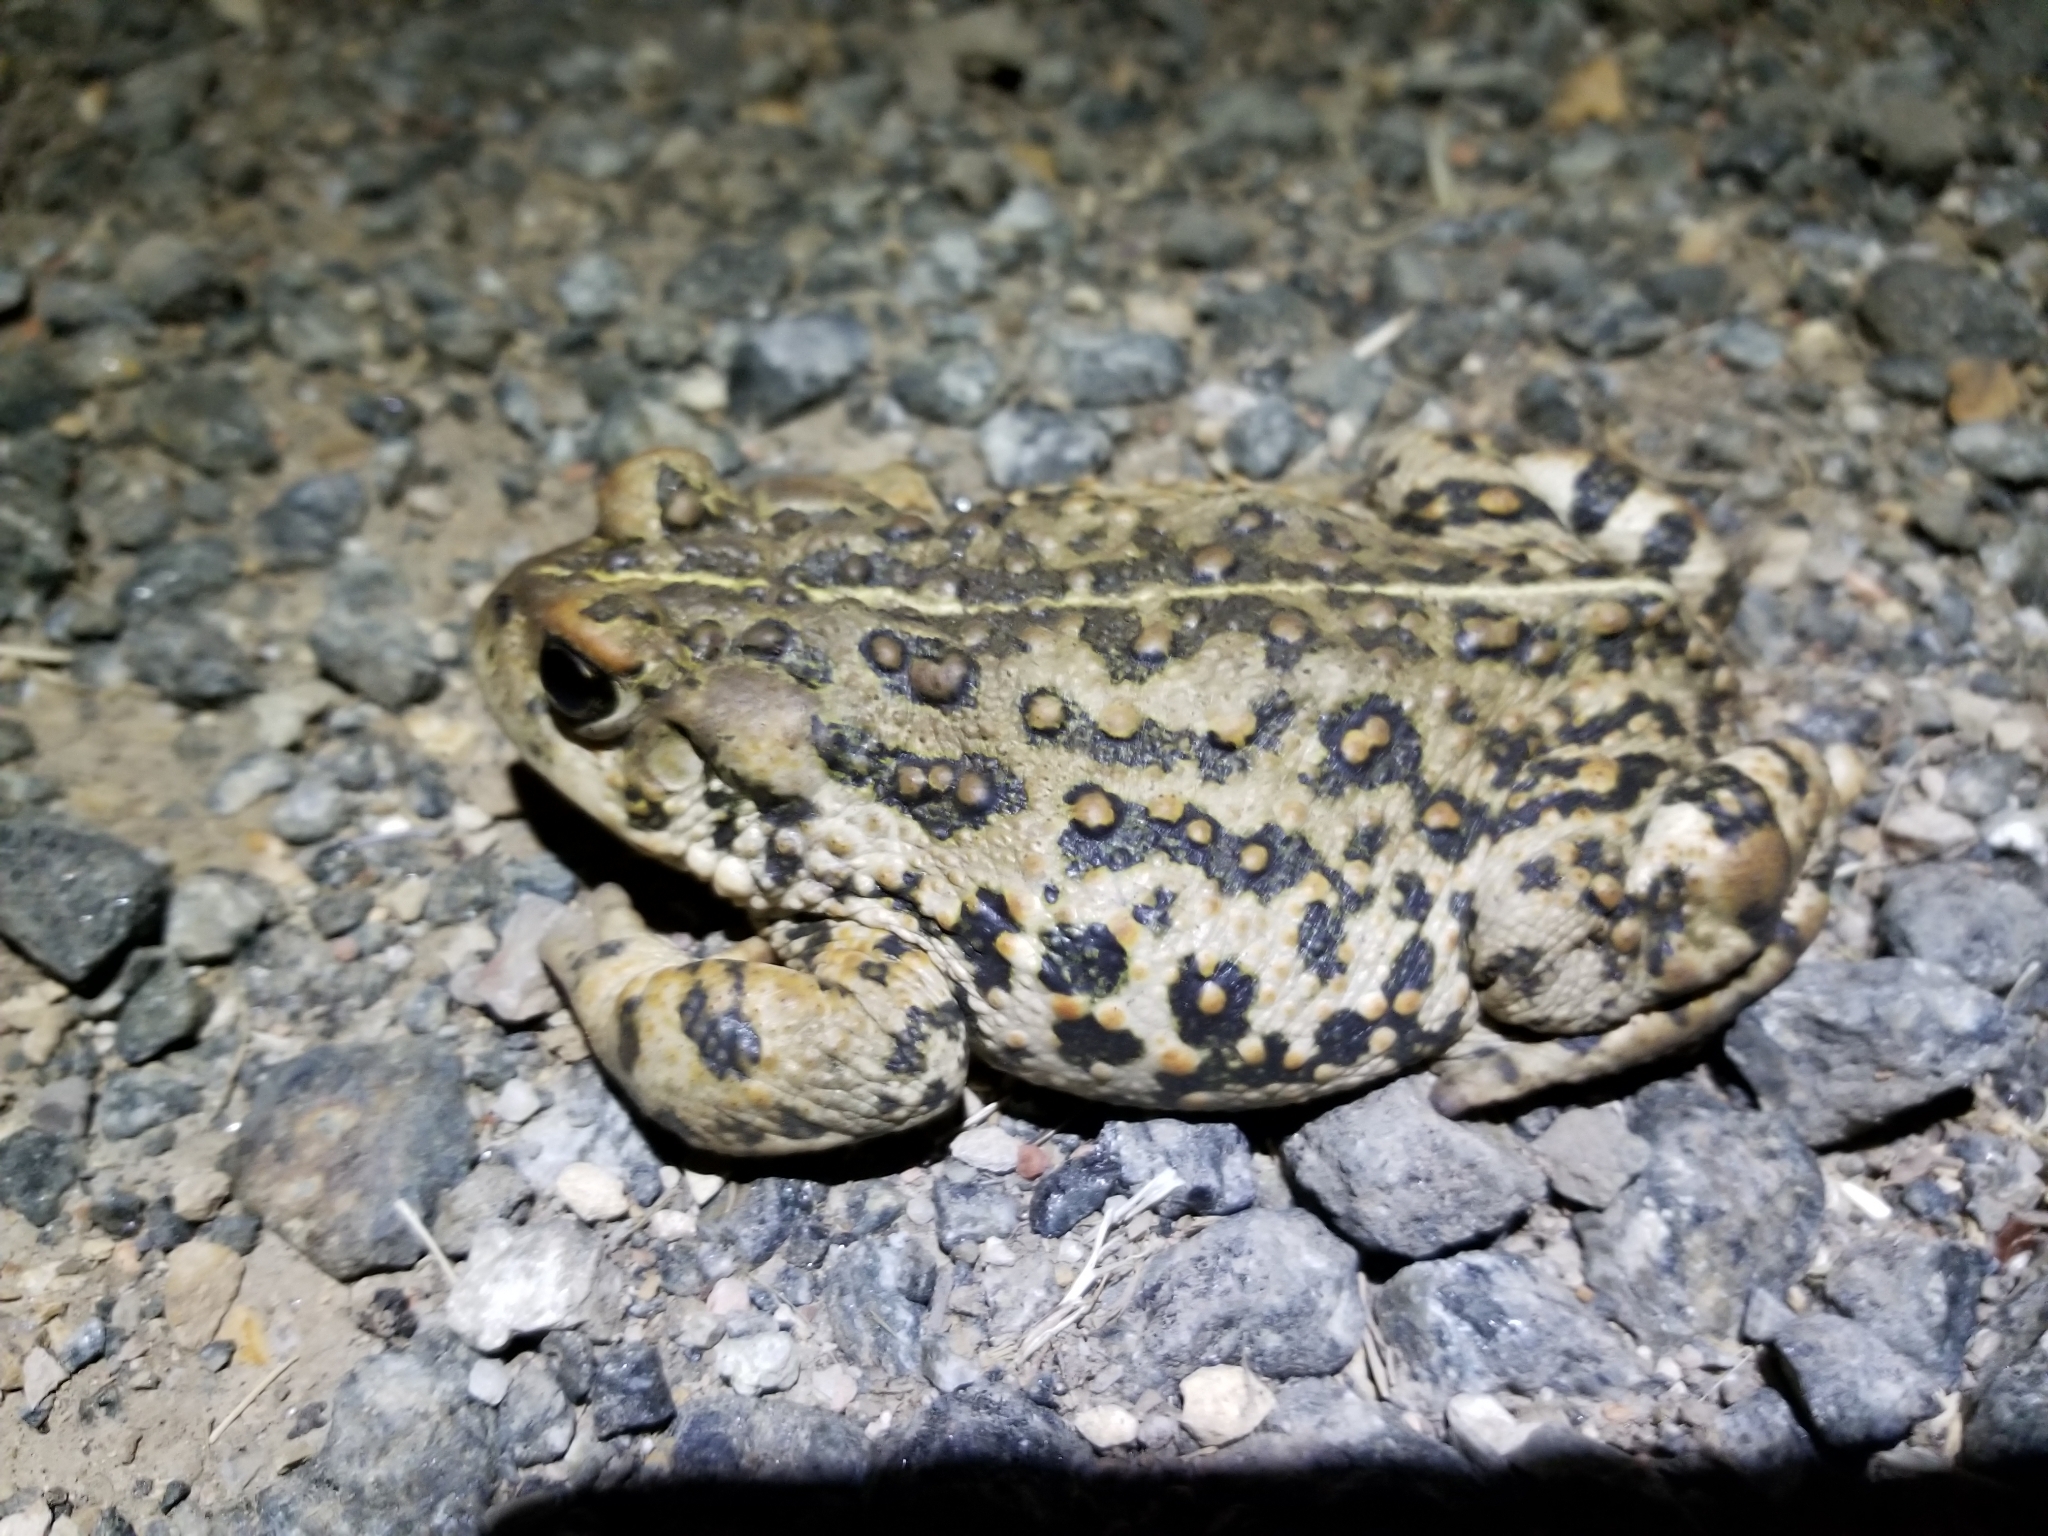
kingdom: Animalia
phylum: Chordata
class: Amphibia
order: Anura
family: Bufonidae
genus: Anaxyrus
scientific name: Anaxyrus boreas
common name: Western toad
